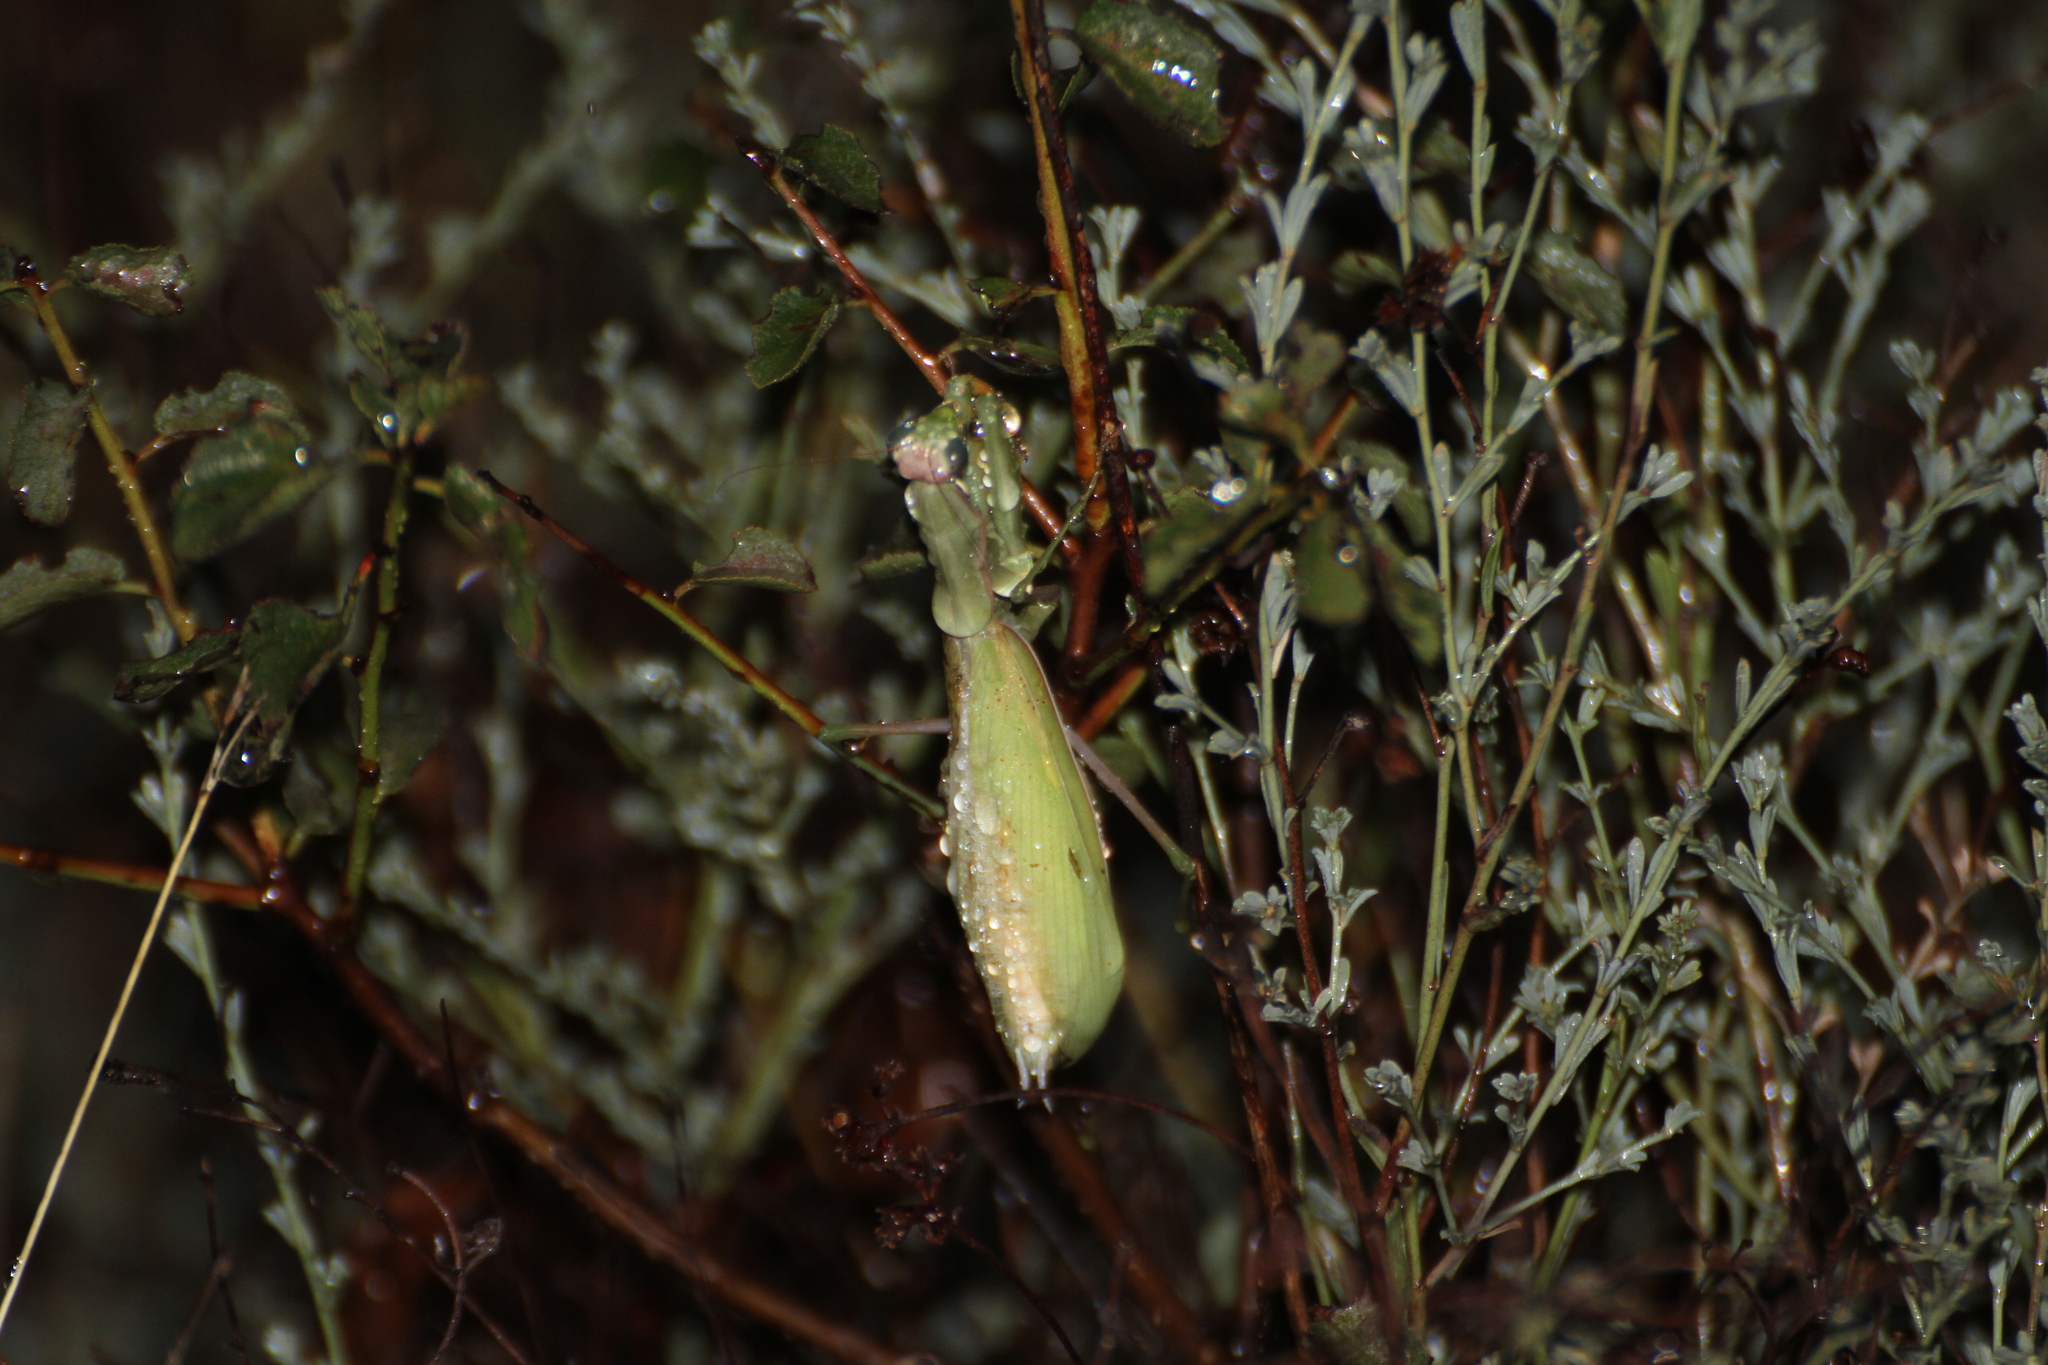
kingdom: Animalia
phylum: Arthropoda
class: Insecta
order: Mantodea
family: Mantidae
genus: Mantis
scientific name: Mantis religiosa
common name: Praying mantis
